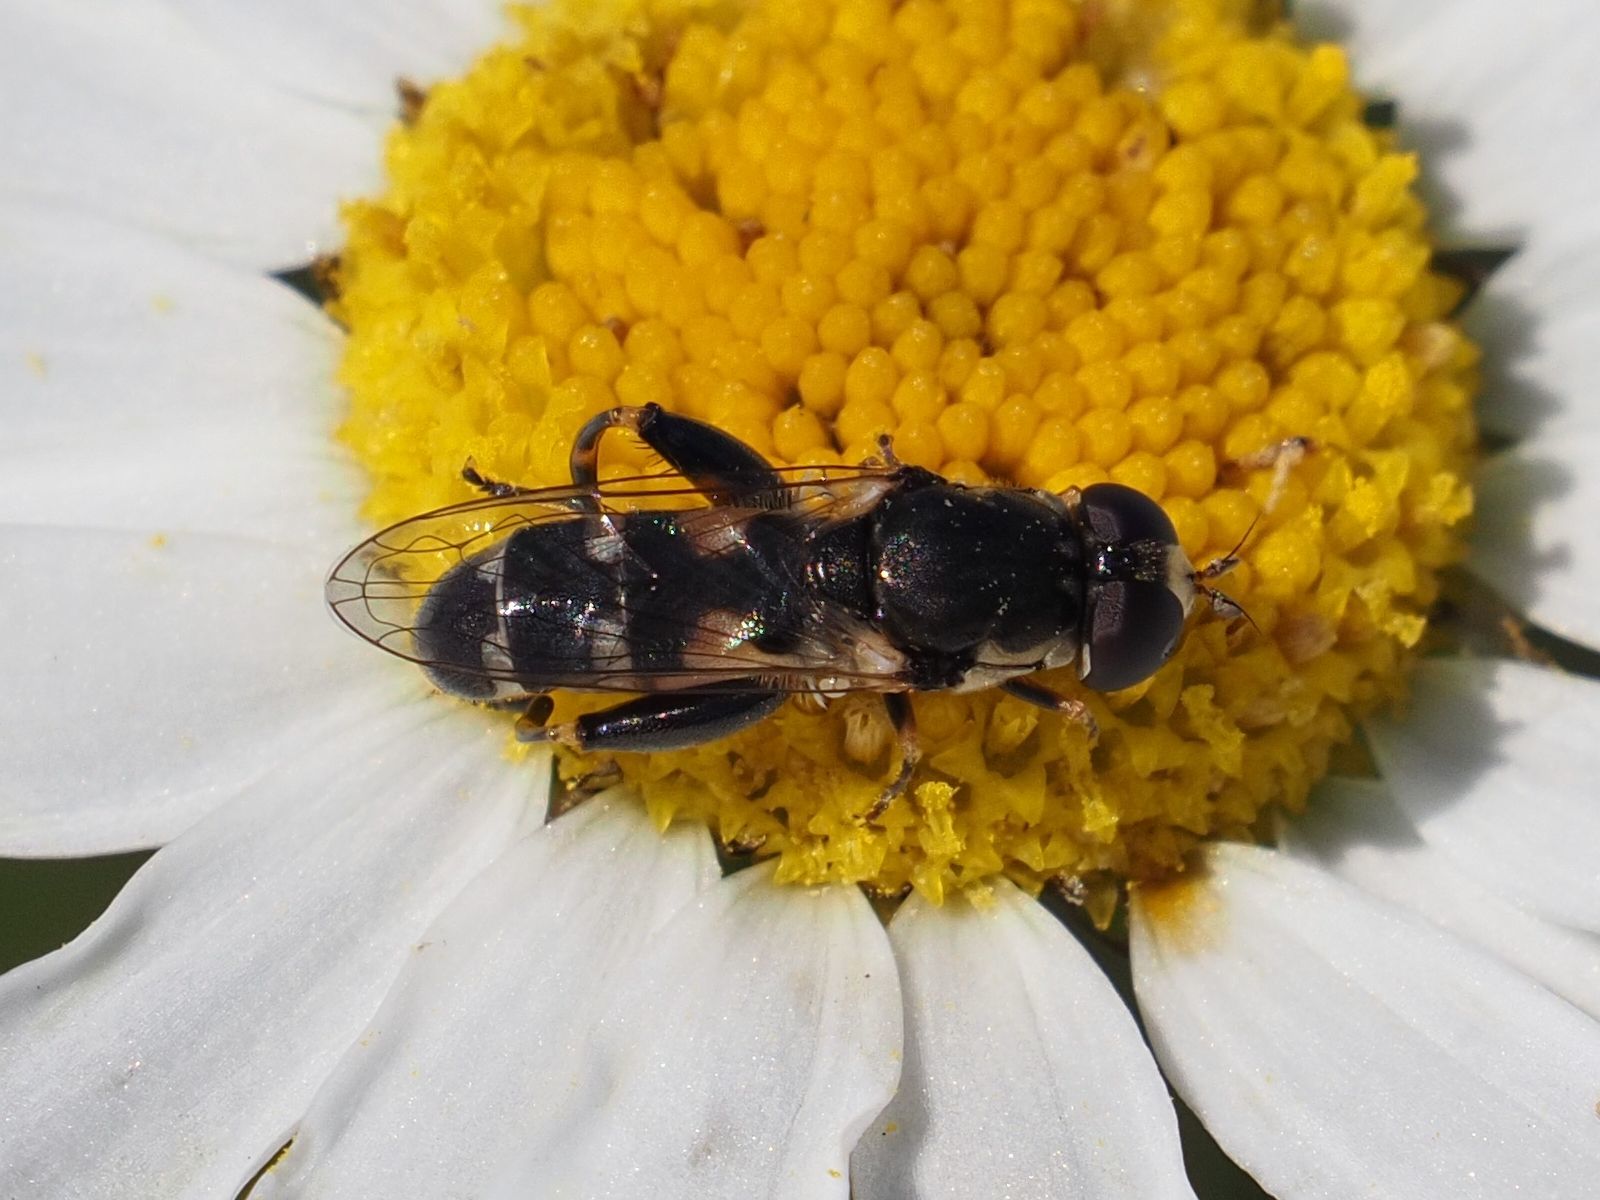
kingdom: Animalia
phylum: Arthropoda
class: Insecta
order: Diptera
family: Syrphidae
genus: Syritta
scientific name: Syritta pipiens
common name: Hover fly
